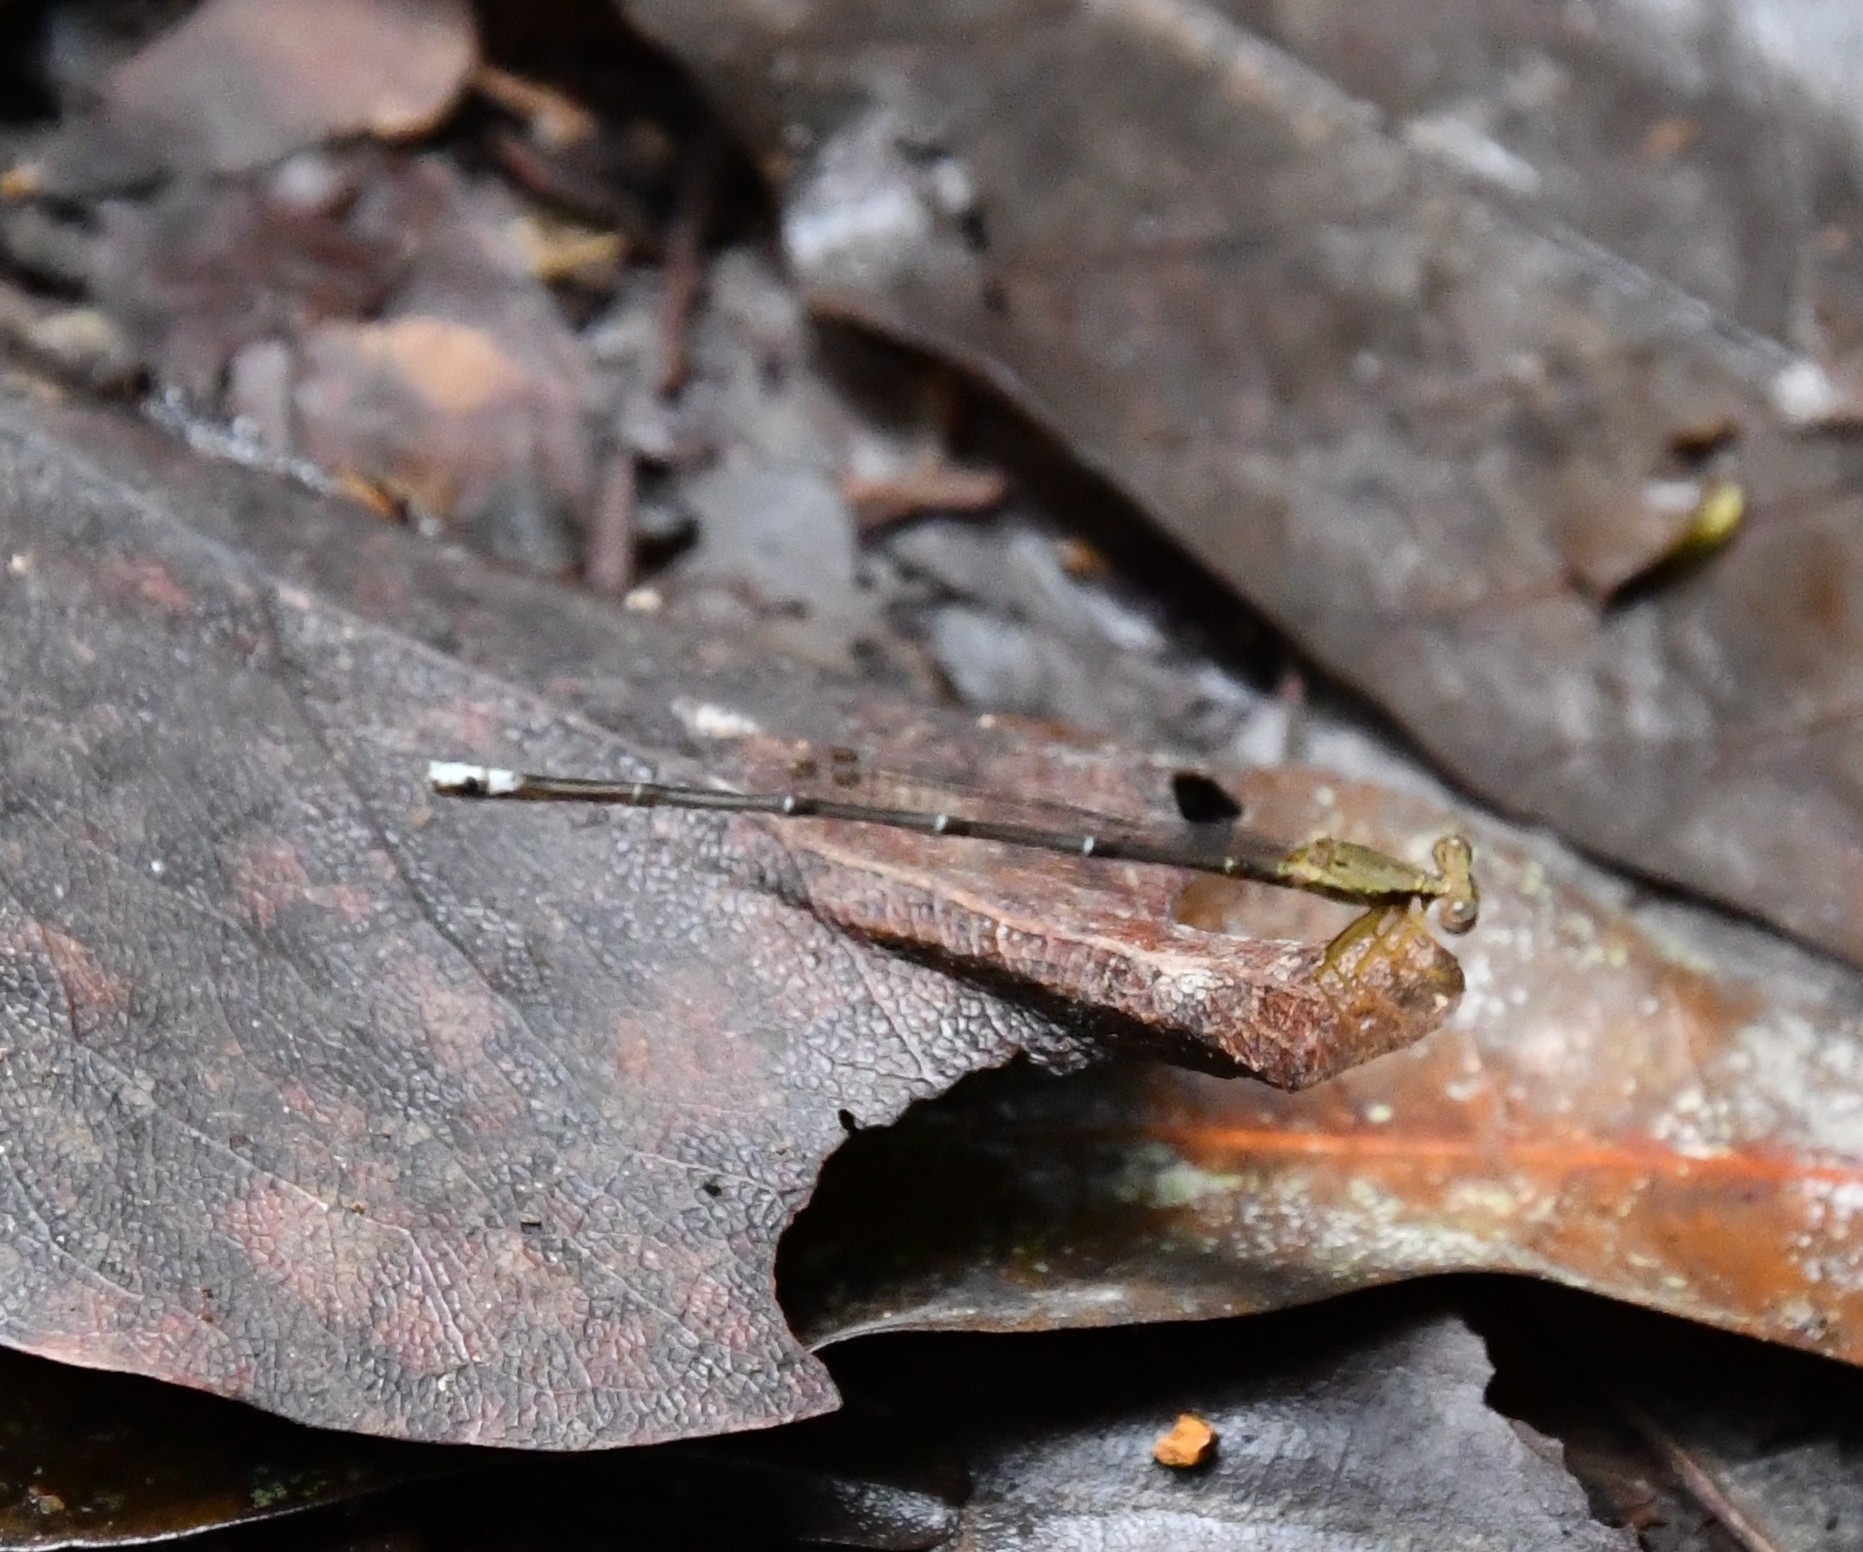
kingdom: Animalia
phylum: Arthropoda
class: Insecta
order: Odonata
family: Platycnemididae
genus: Copera
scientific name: Copera vittata
